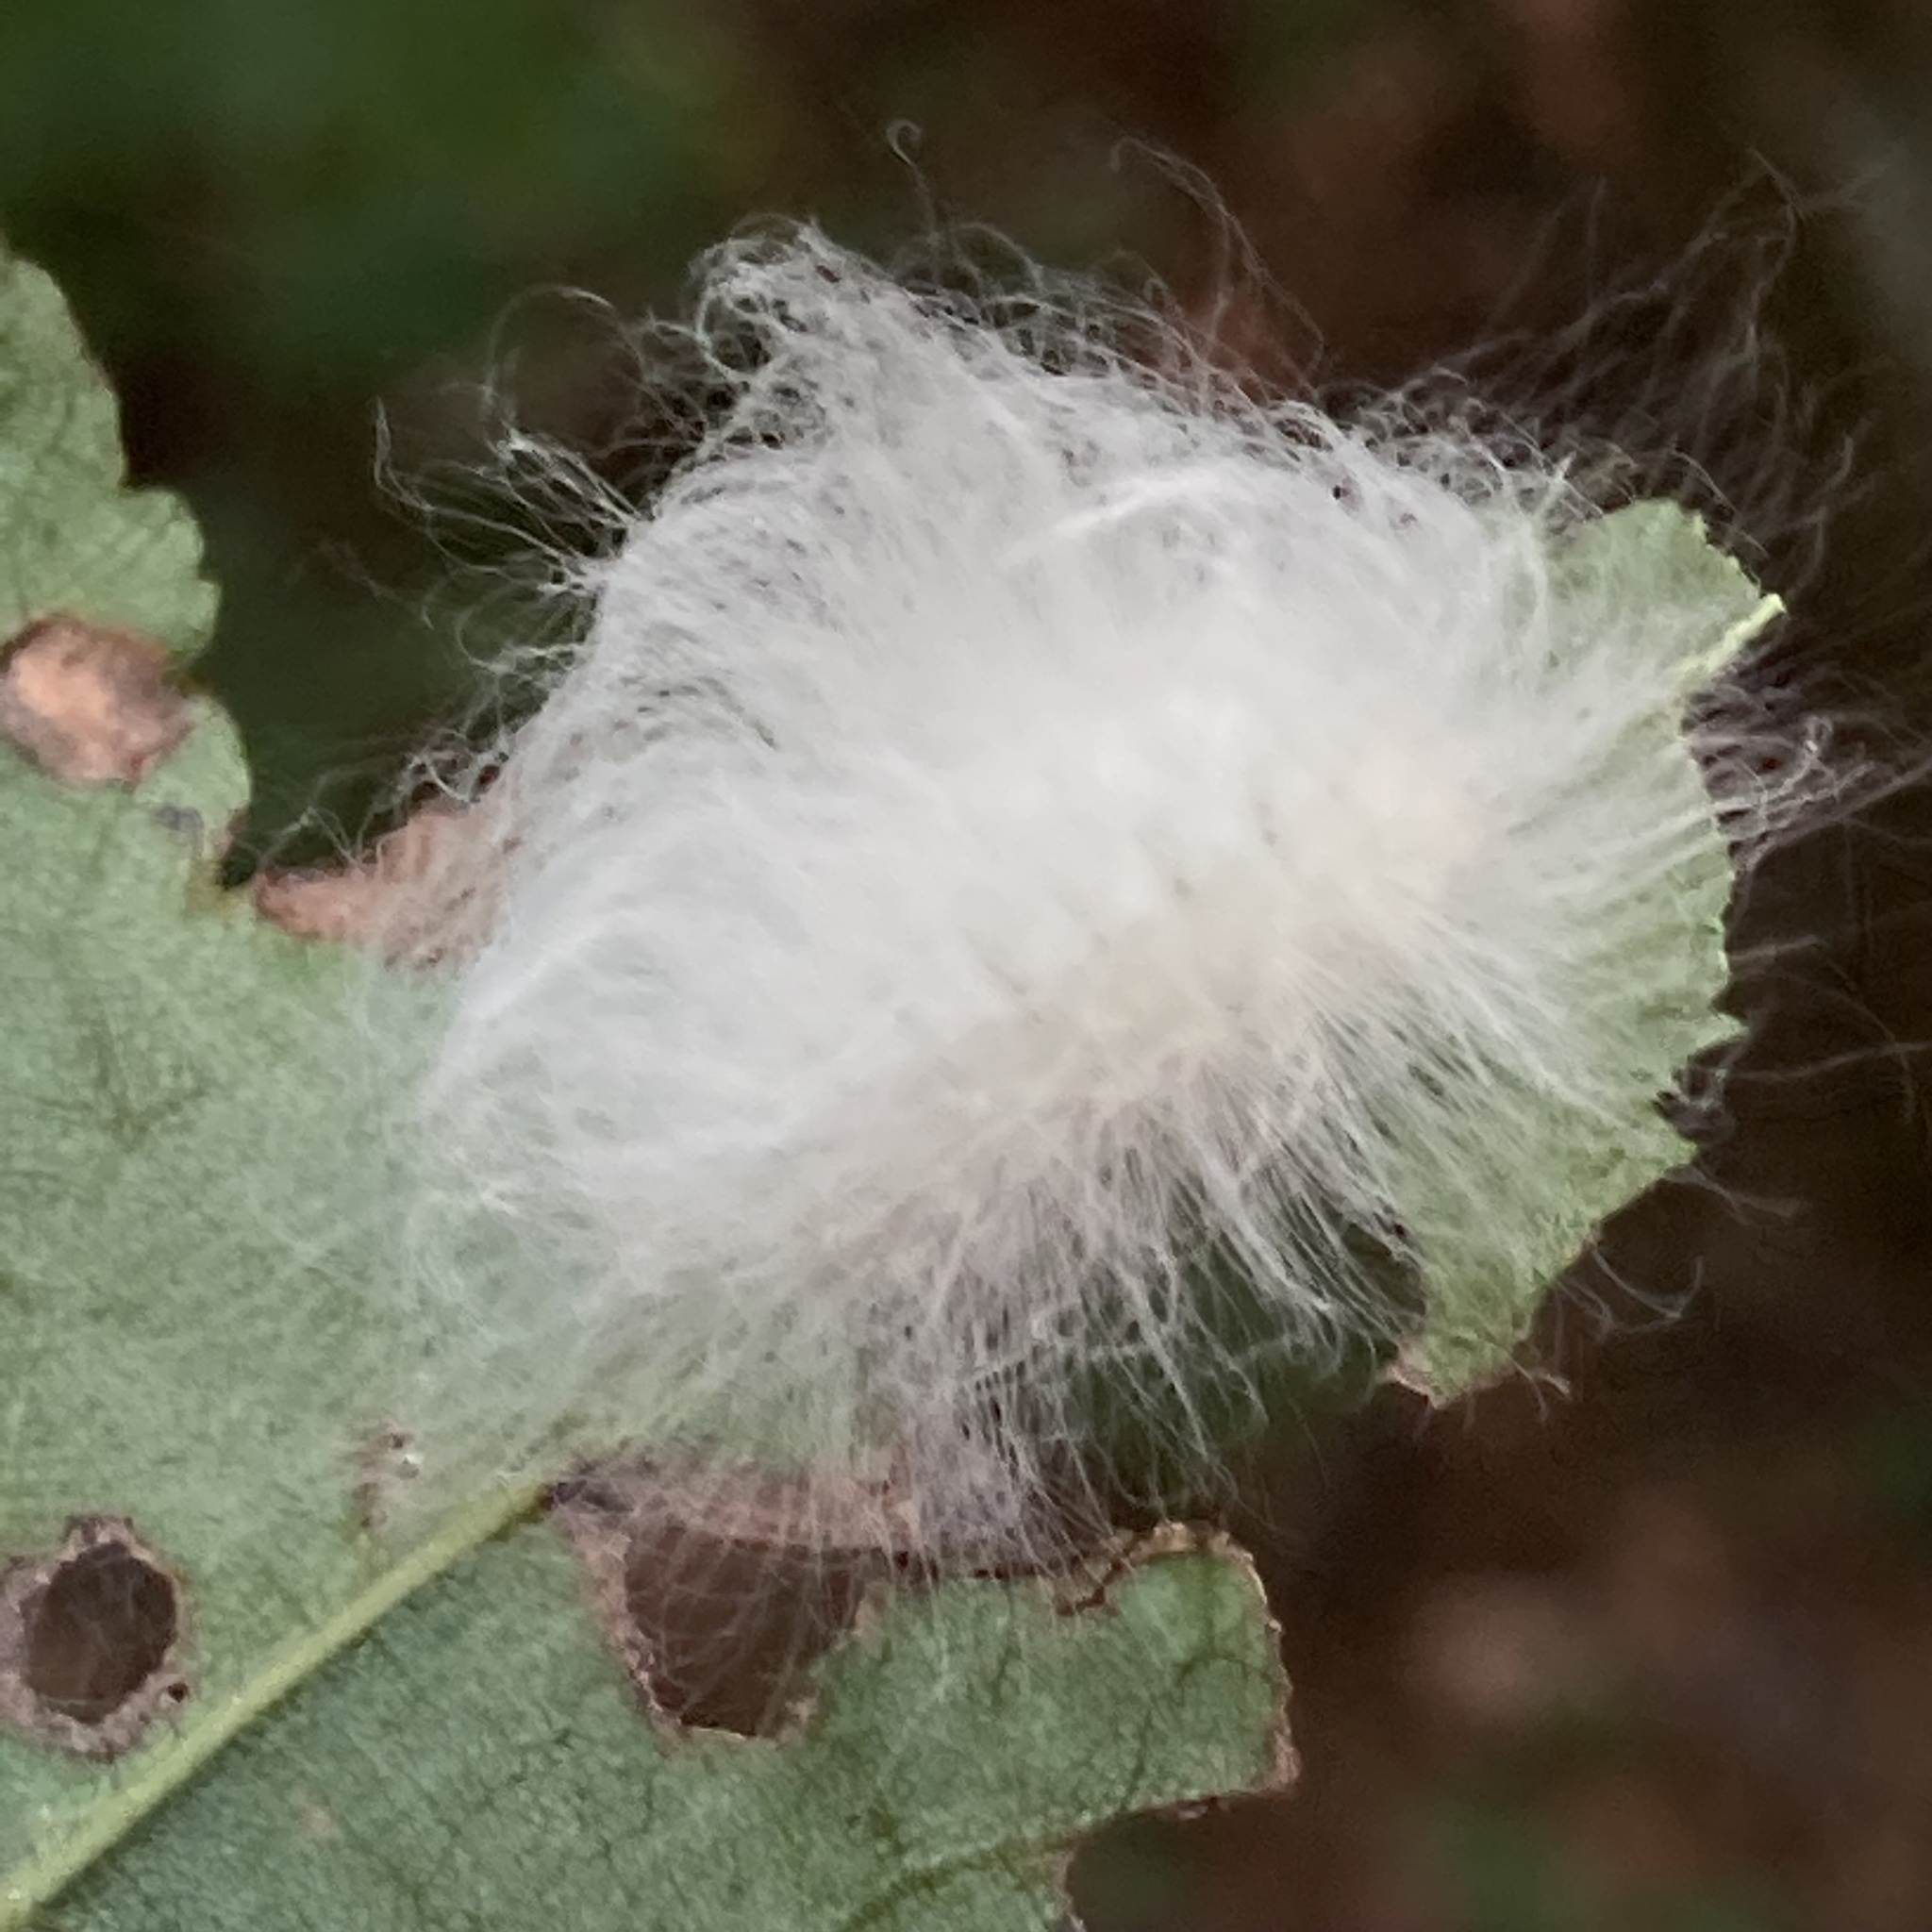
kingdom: Animalia
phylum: Arthropoda
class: Insecta
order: Lepidoptera
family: Megalopygidae
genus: Megalopyge
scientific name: Megalopyge crispata
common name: Black-waved flannel moth
